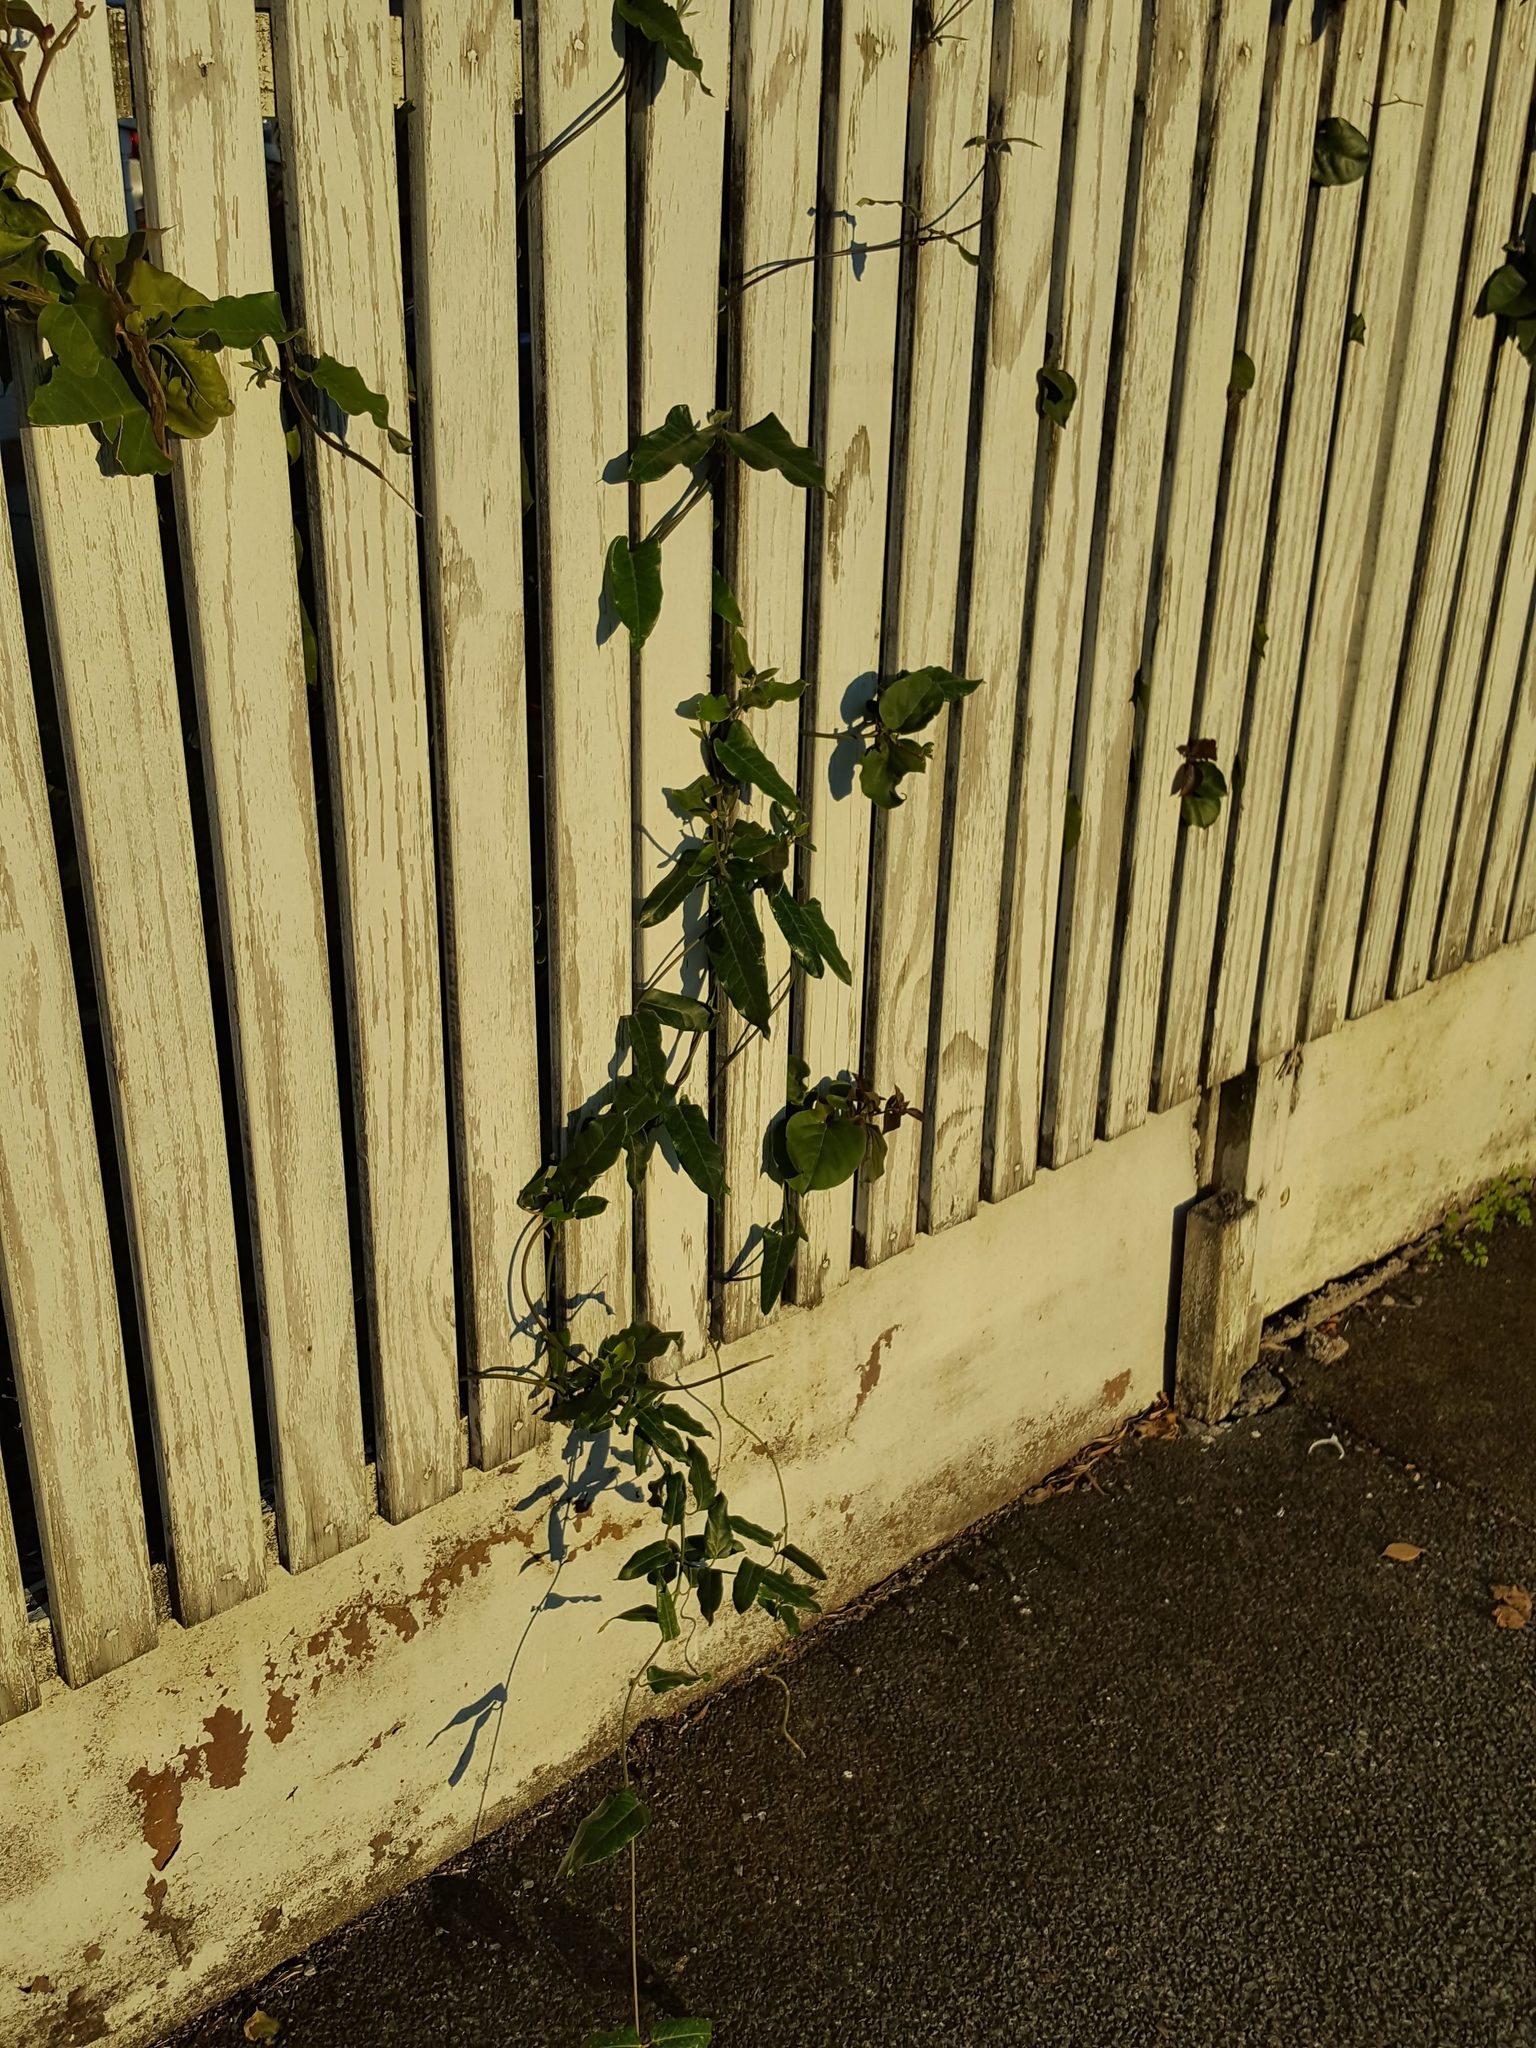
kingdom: Plantae
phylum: Tracheophyta
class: Magnoliopsida
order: Gentianales
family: Apocynaceae
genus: Araujia
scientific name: Araujia sericifera
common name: White bladderflower
